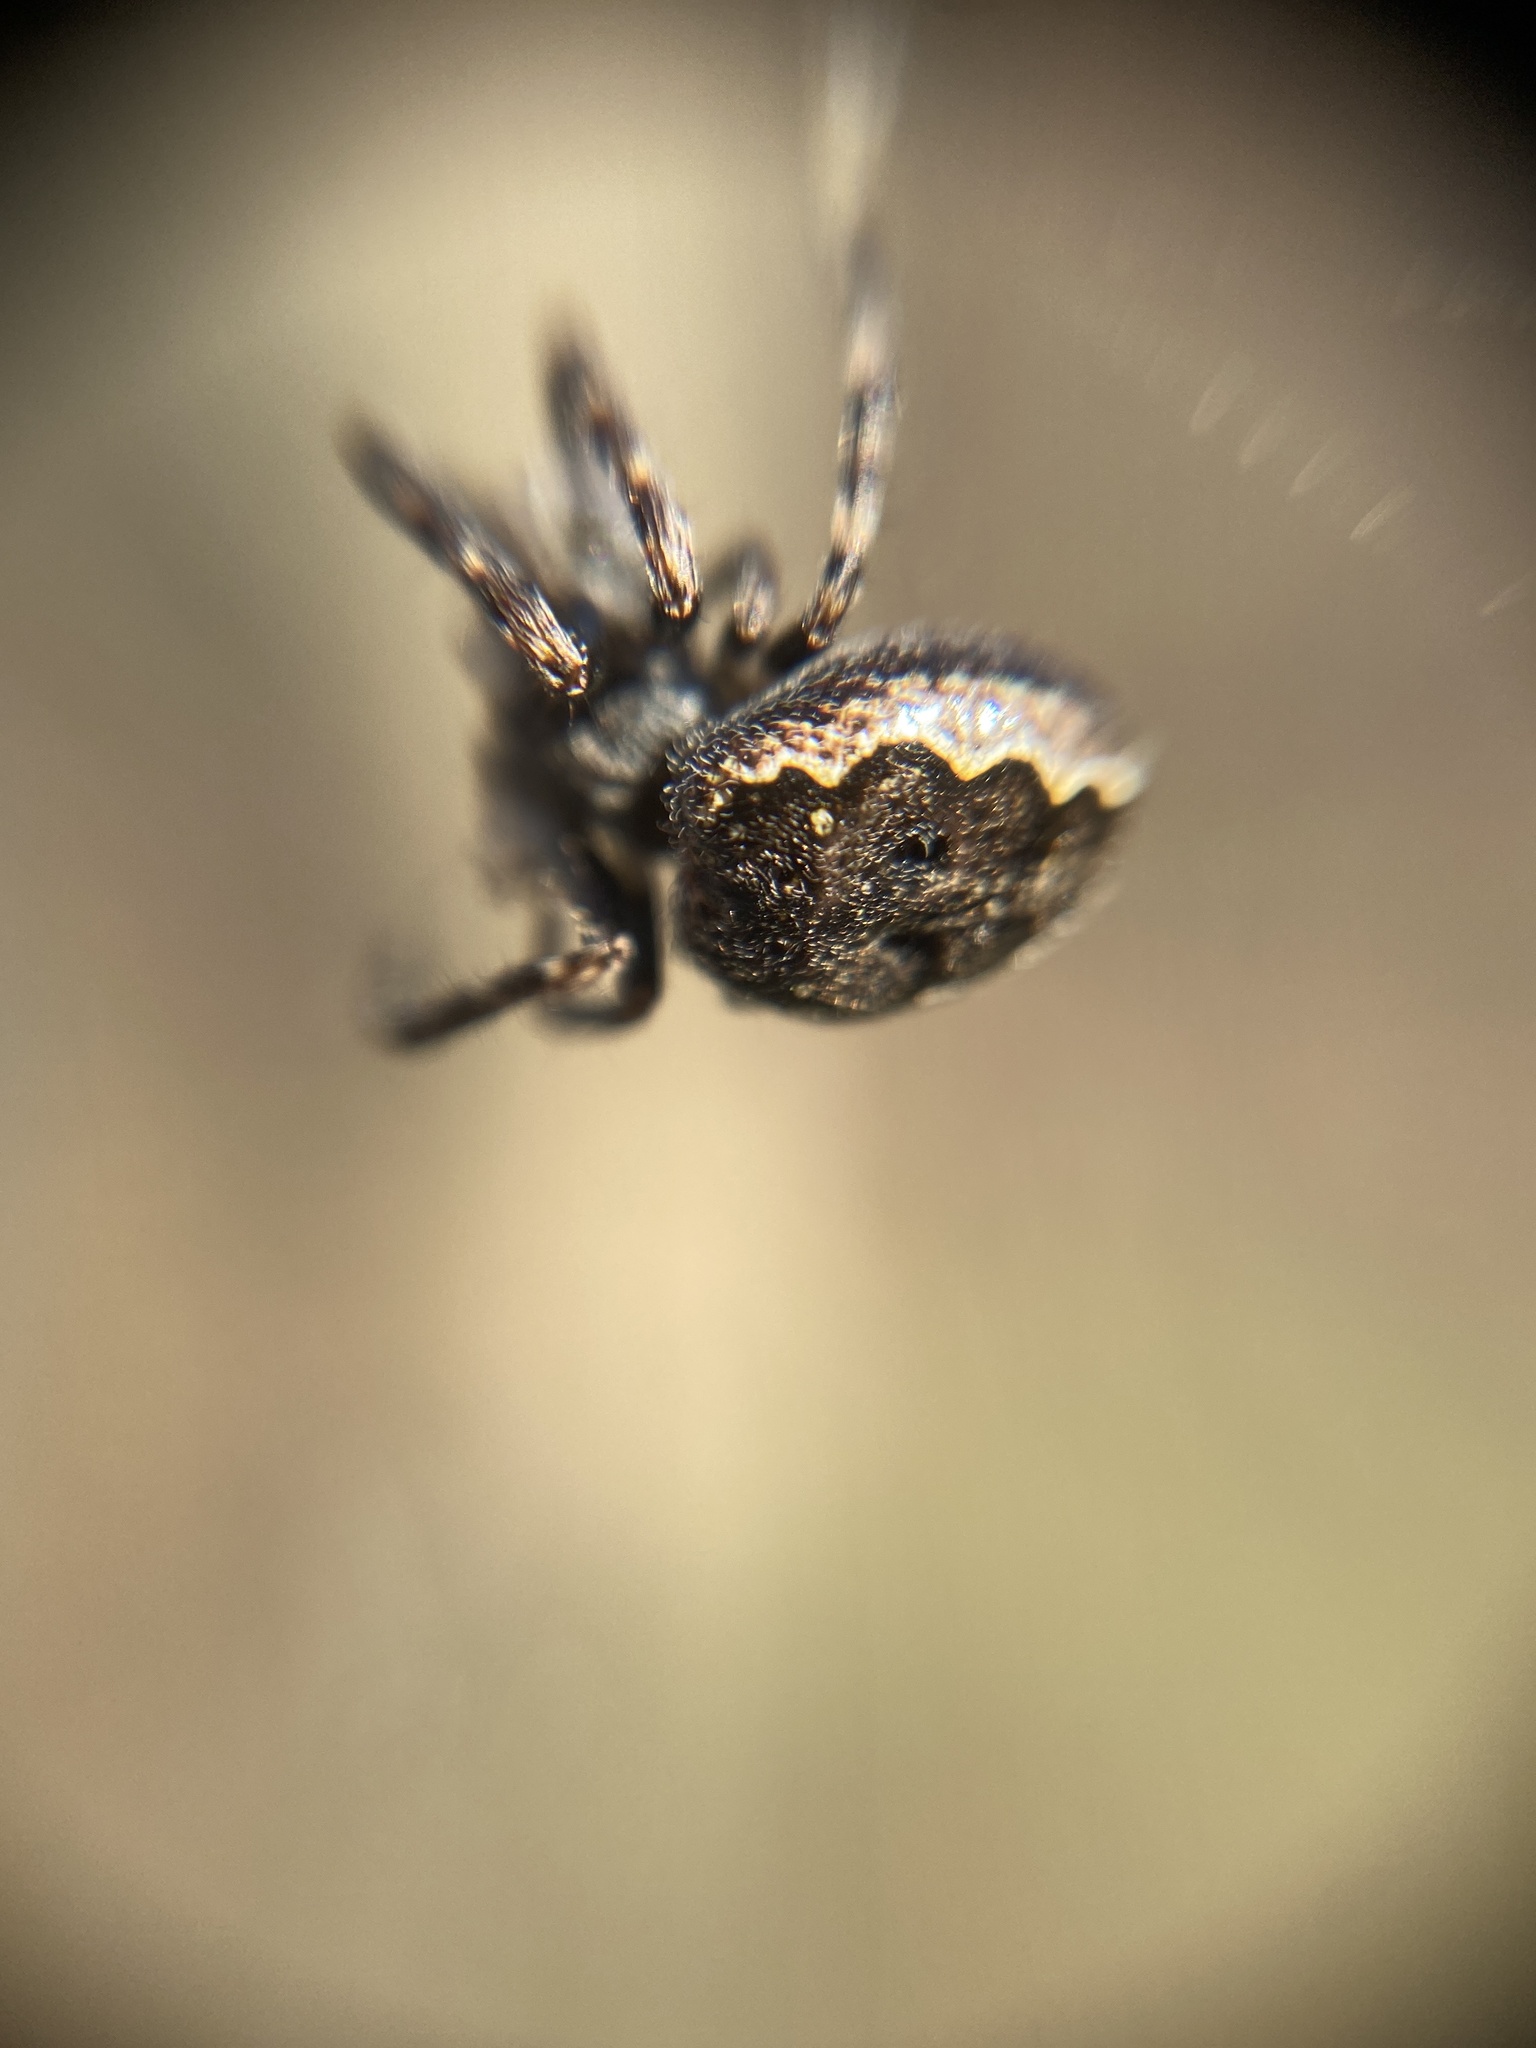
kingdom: Animalia
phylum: Arthropoda
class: Arachnida
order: Araneae
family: Araneidae
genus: Nuctenea
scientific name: Nuctenea umbratica
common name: Toad spider
